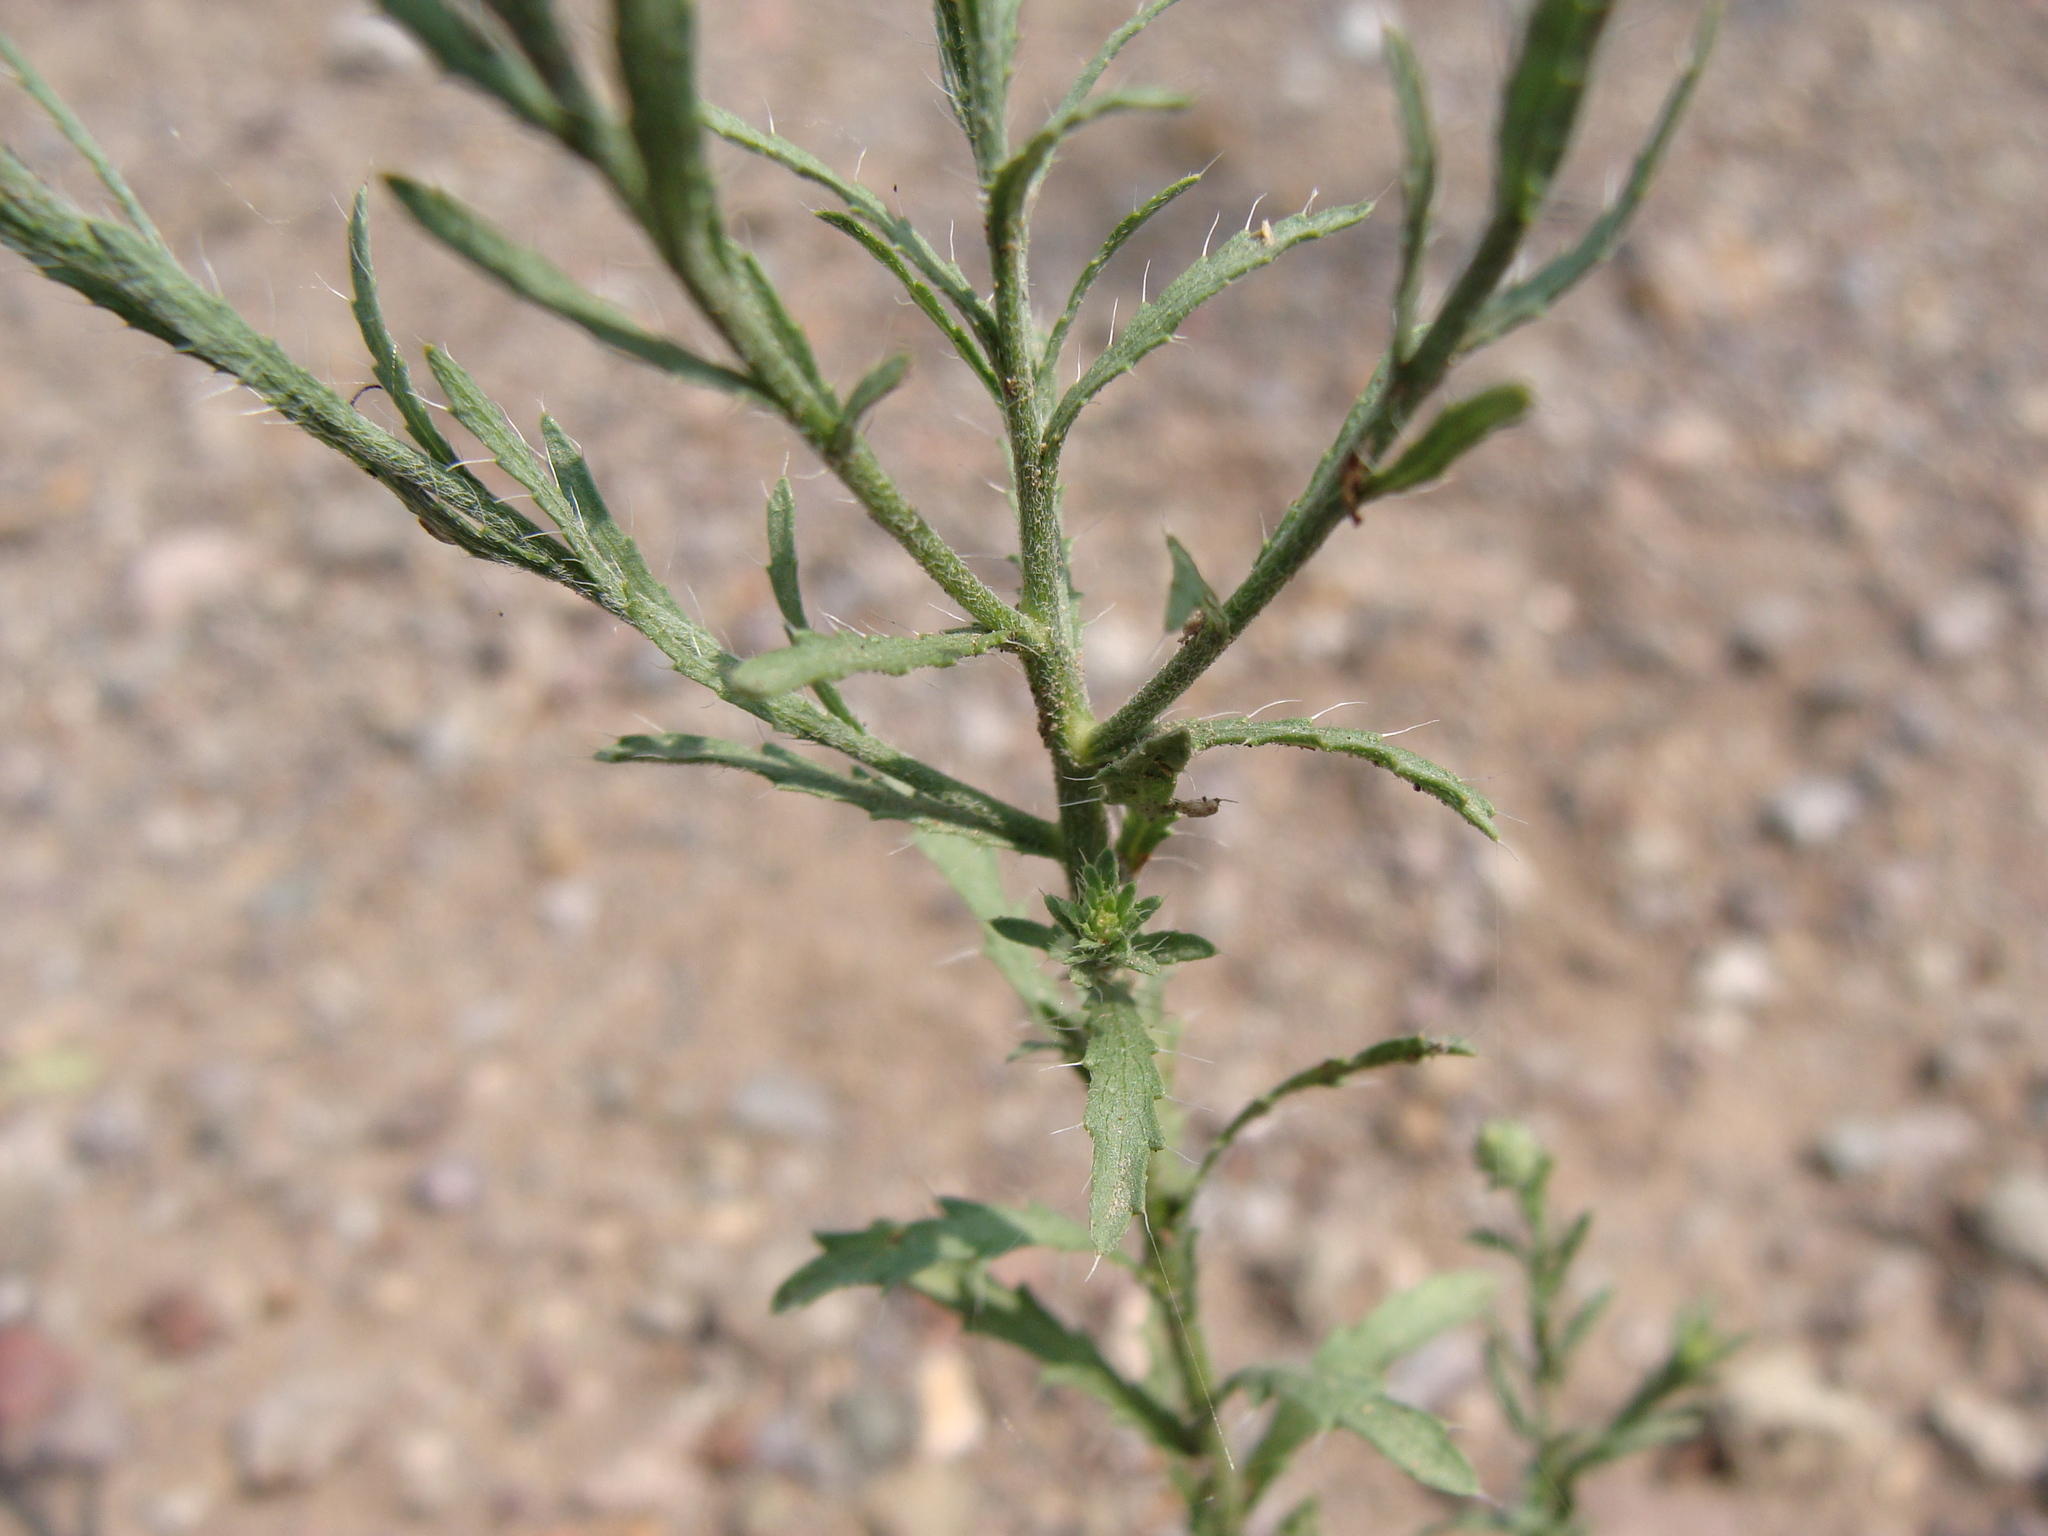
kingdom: Plantae
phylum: Tracheophyta
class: Magnoliopsida
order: Asterales
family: Asteraceae
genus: Xanthisma
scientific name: Xanthisma gracile
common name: Slender goldenweed
